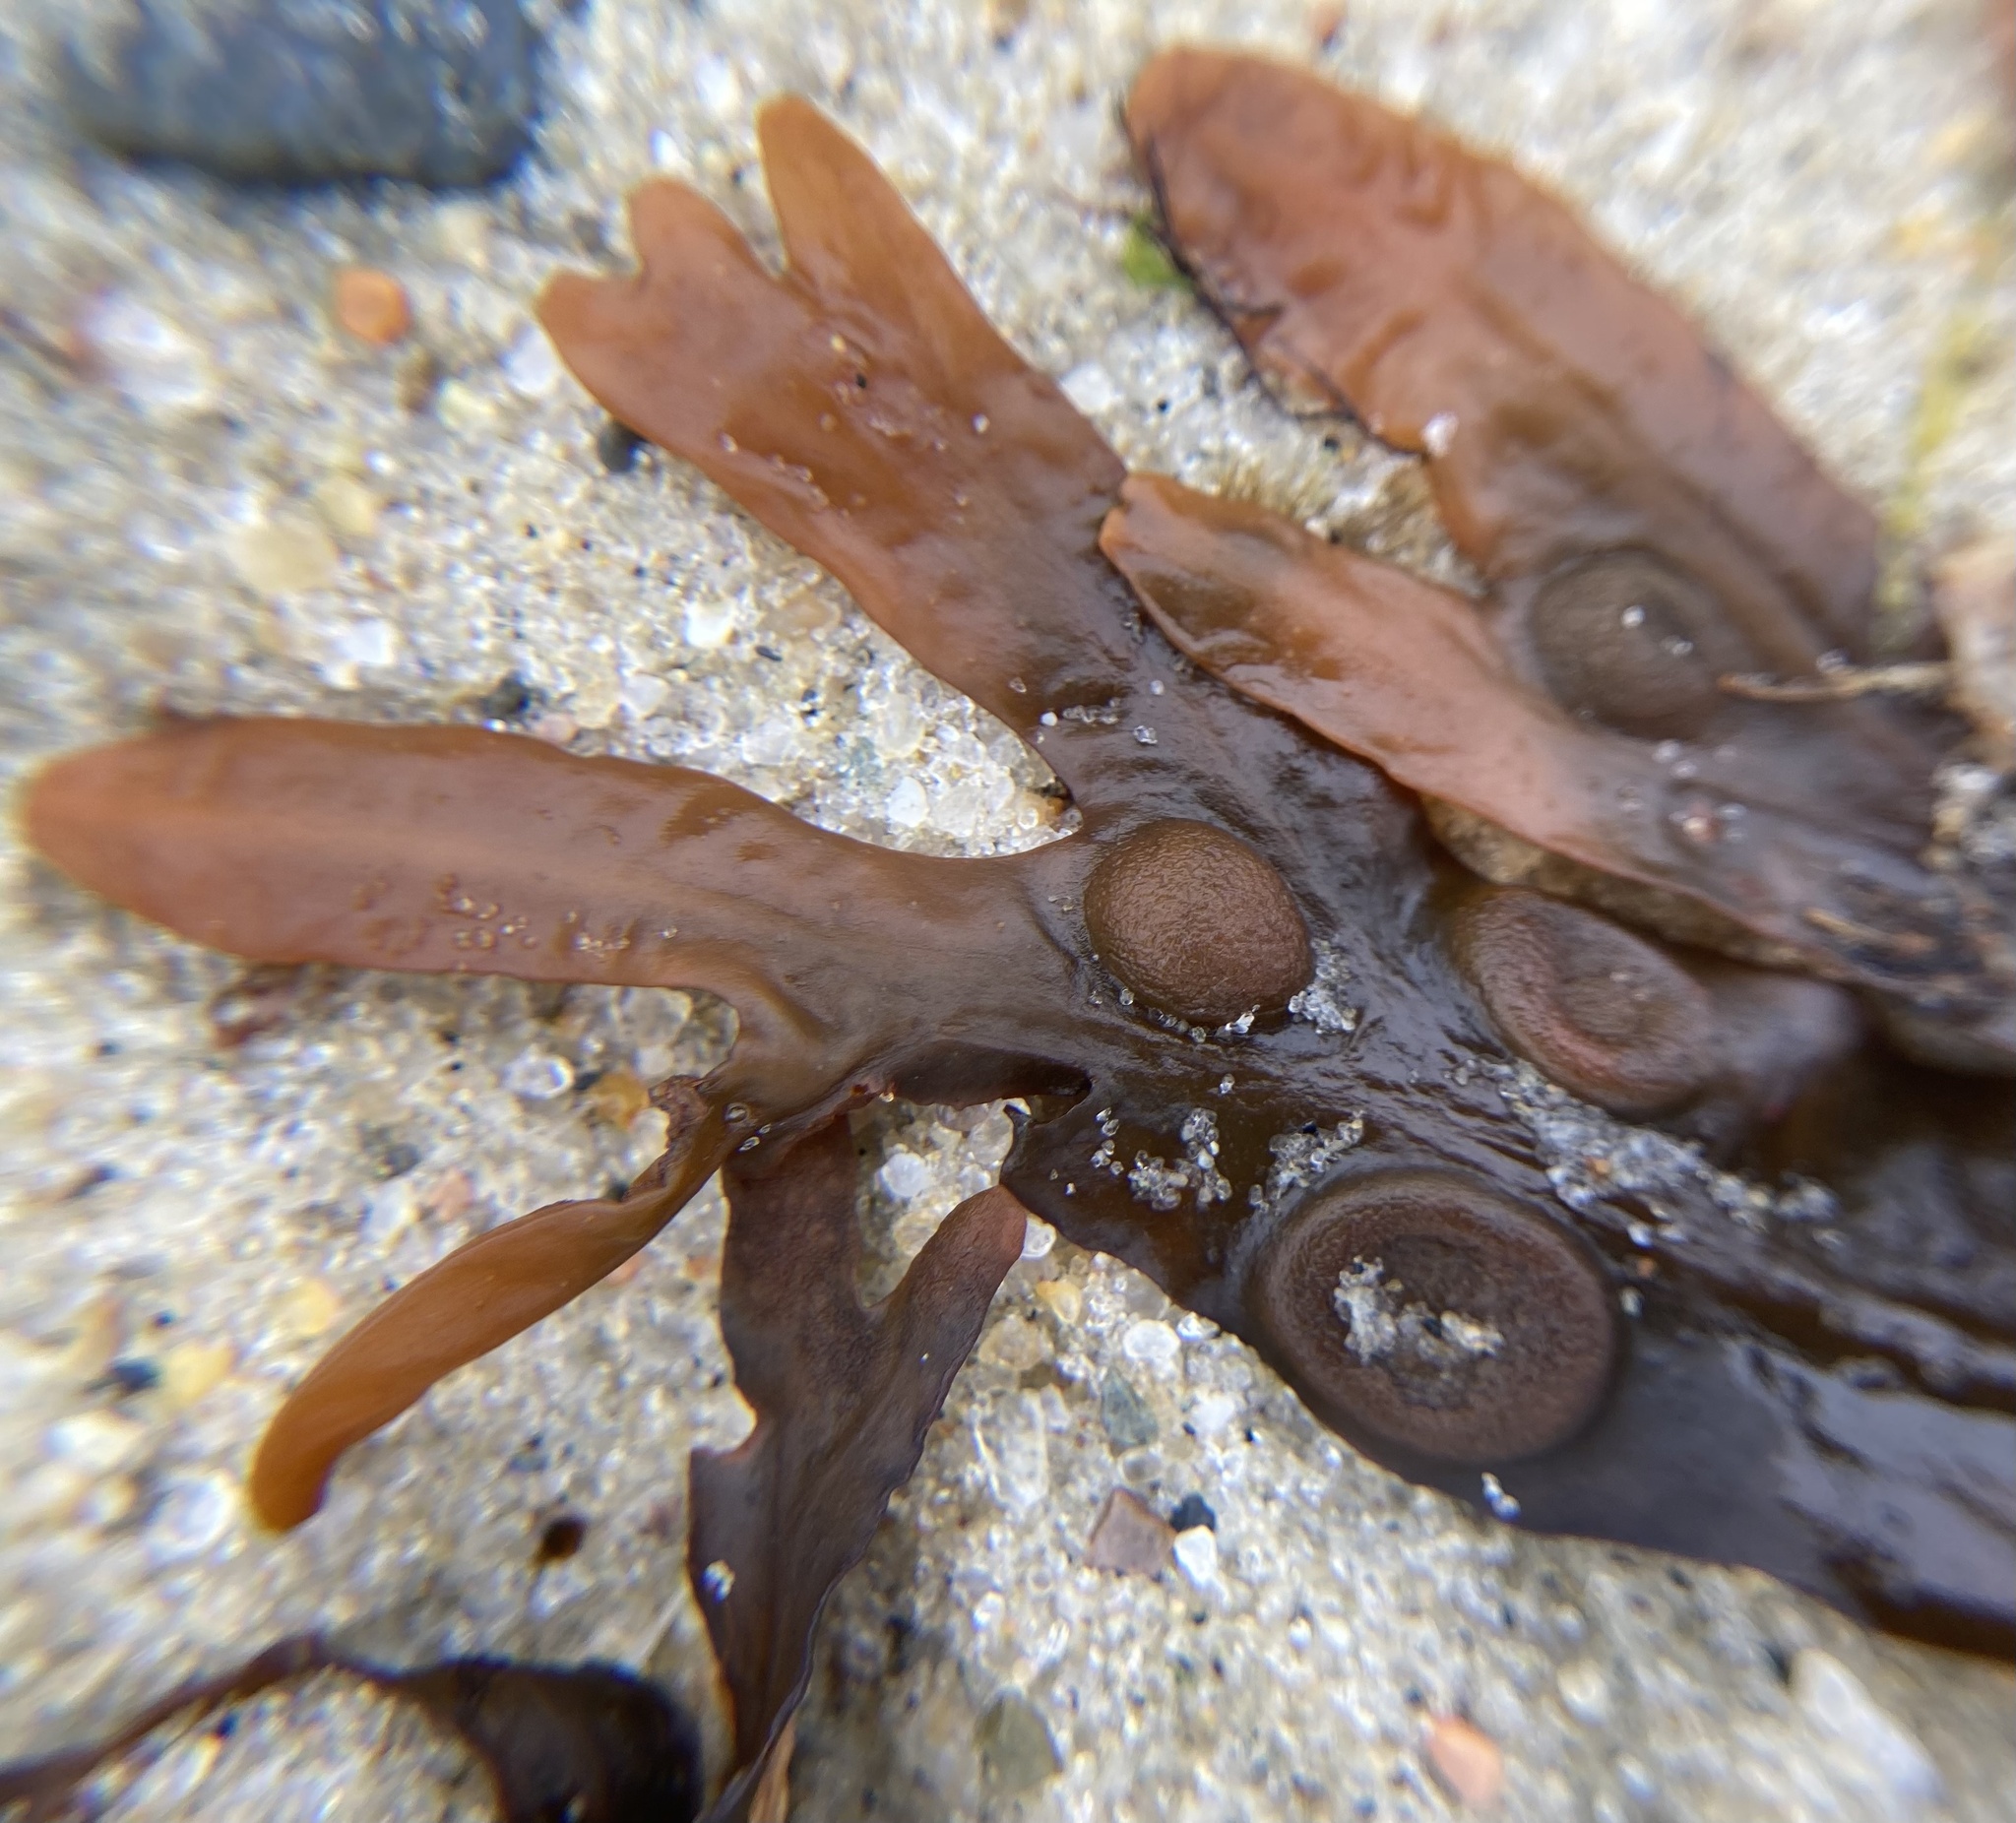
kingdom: Chromista
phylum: Ochrophyta
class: Phaeophyceae
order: Fucales
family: Fucaceae
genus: Fucus
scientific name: Fucus vesiculosus
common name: Bladder wrack
